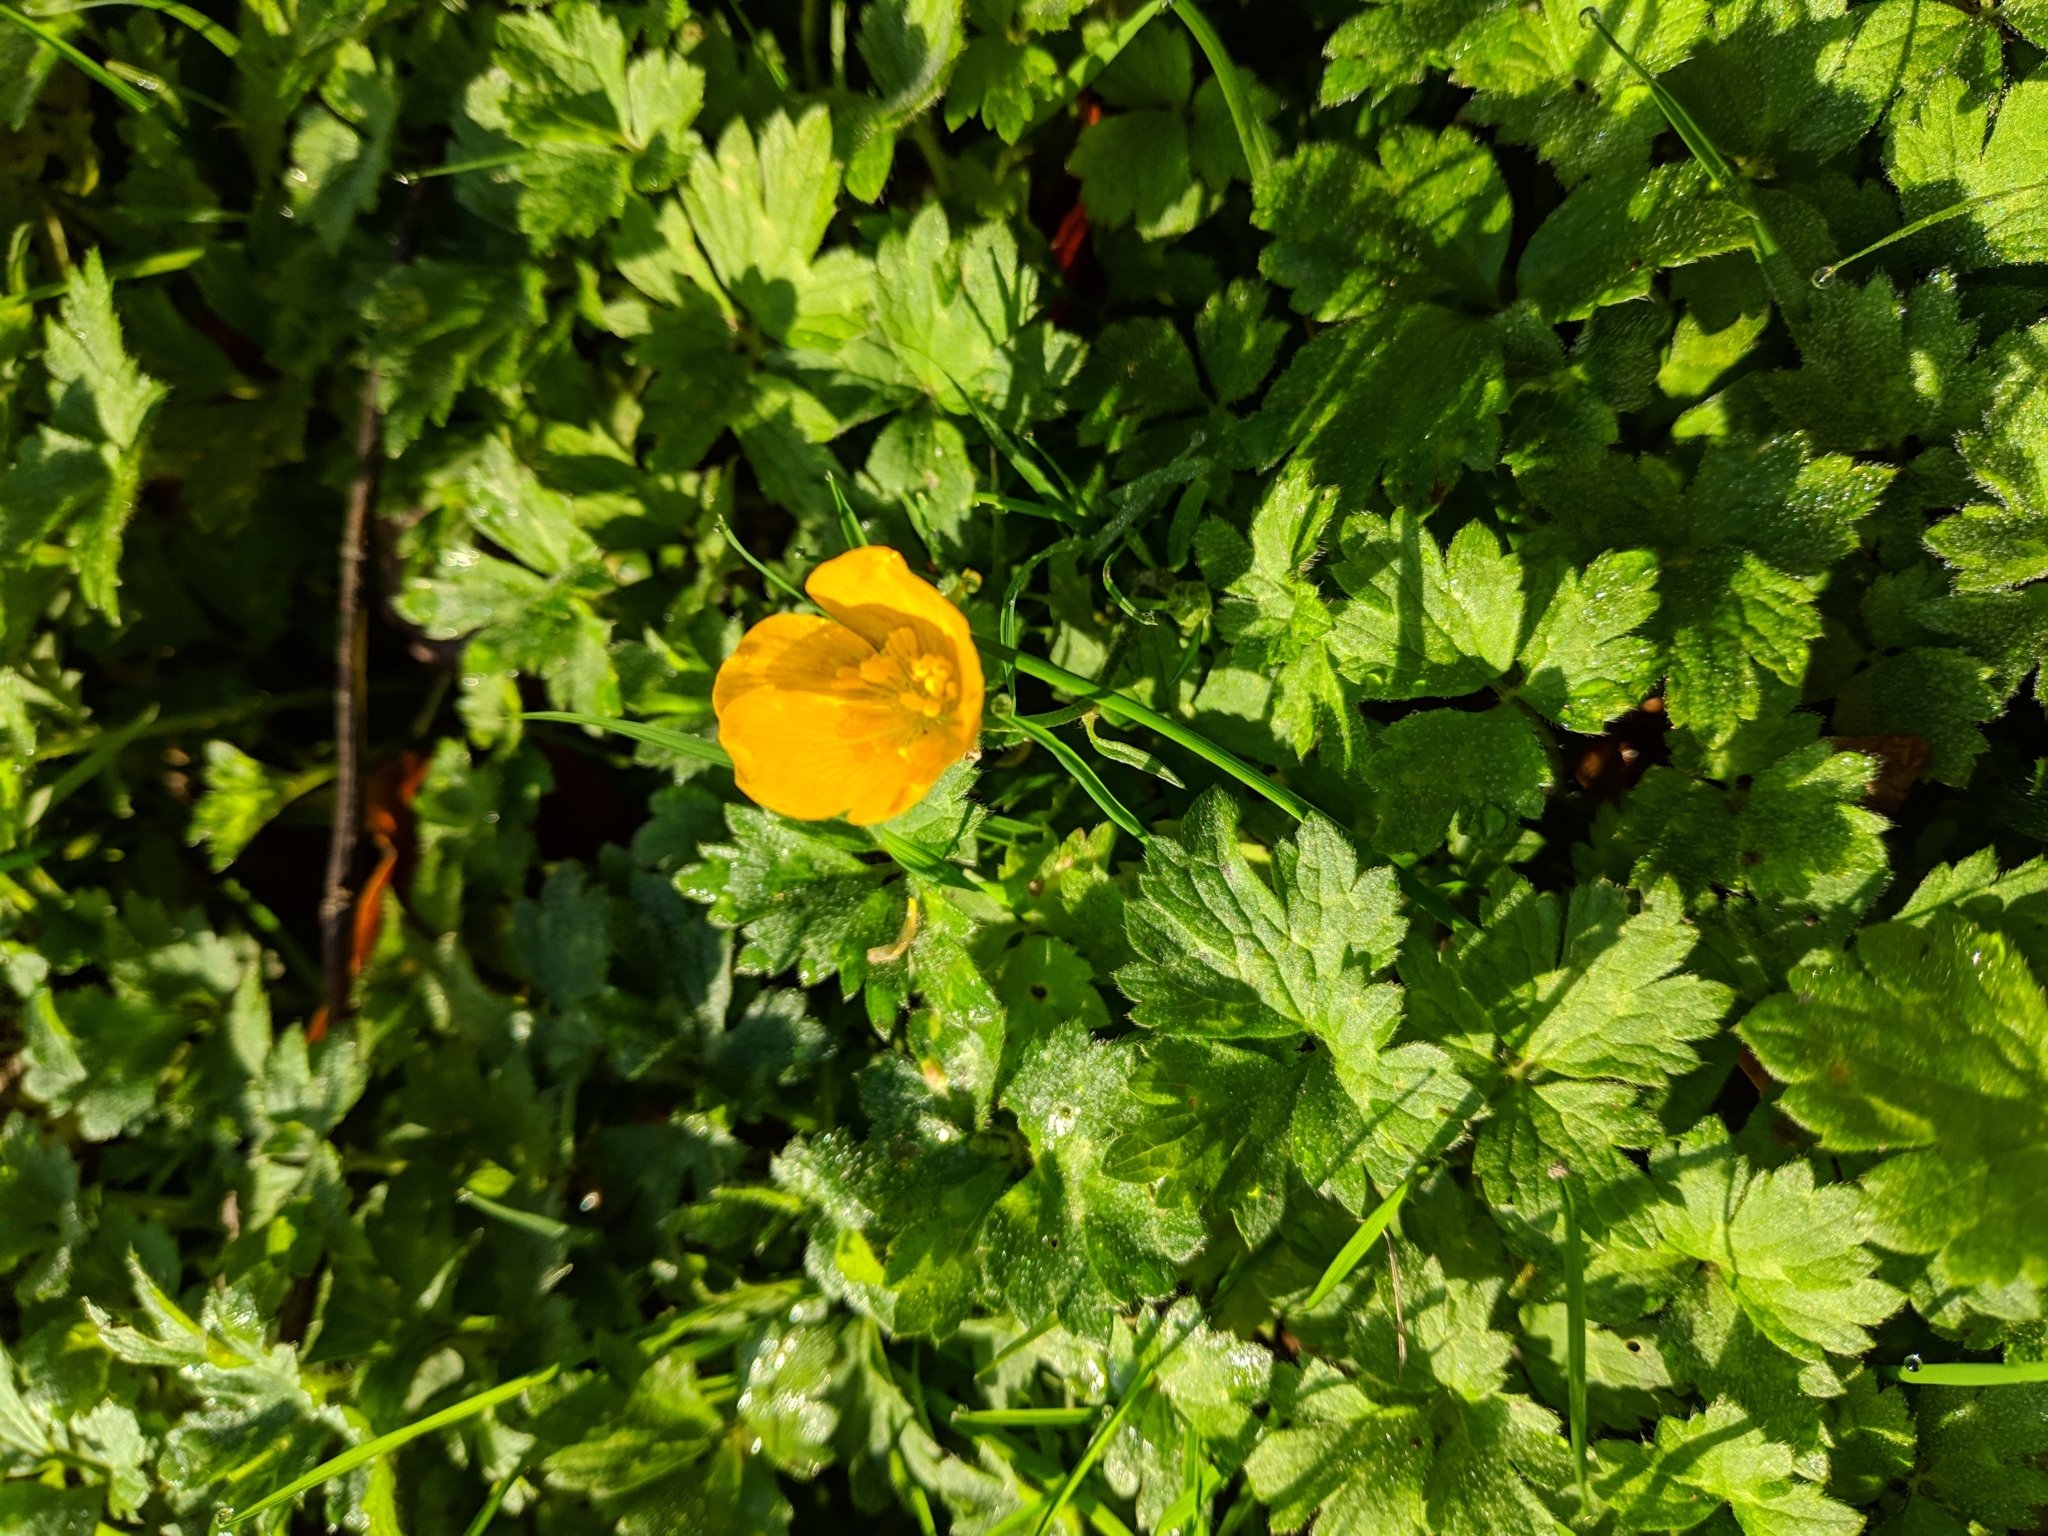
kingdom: Plantae
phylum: Tracheophyta
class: Magnoliopsida
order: Ranunculales
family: Ranunculaceae
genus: Ranunculus
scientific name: Ranunculus repens
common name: Creeping buttercup
